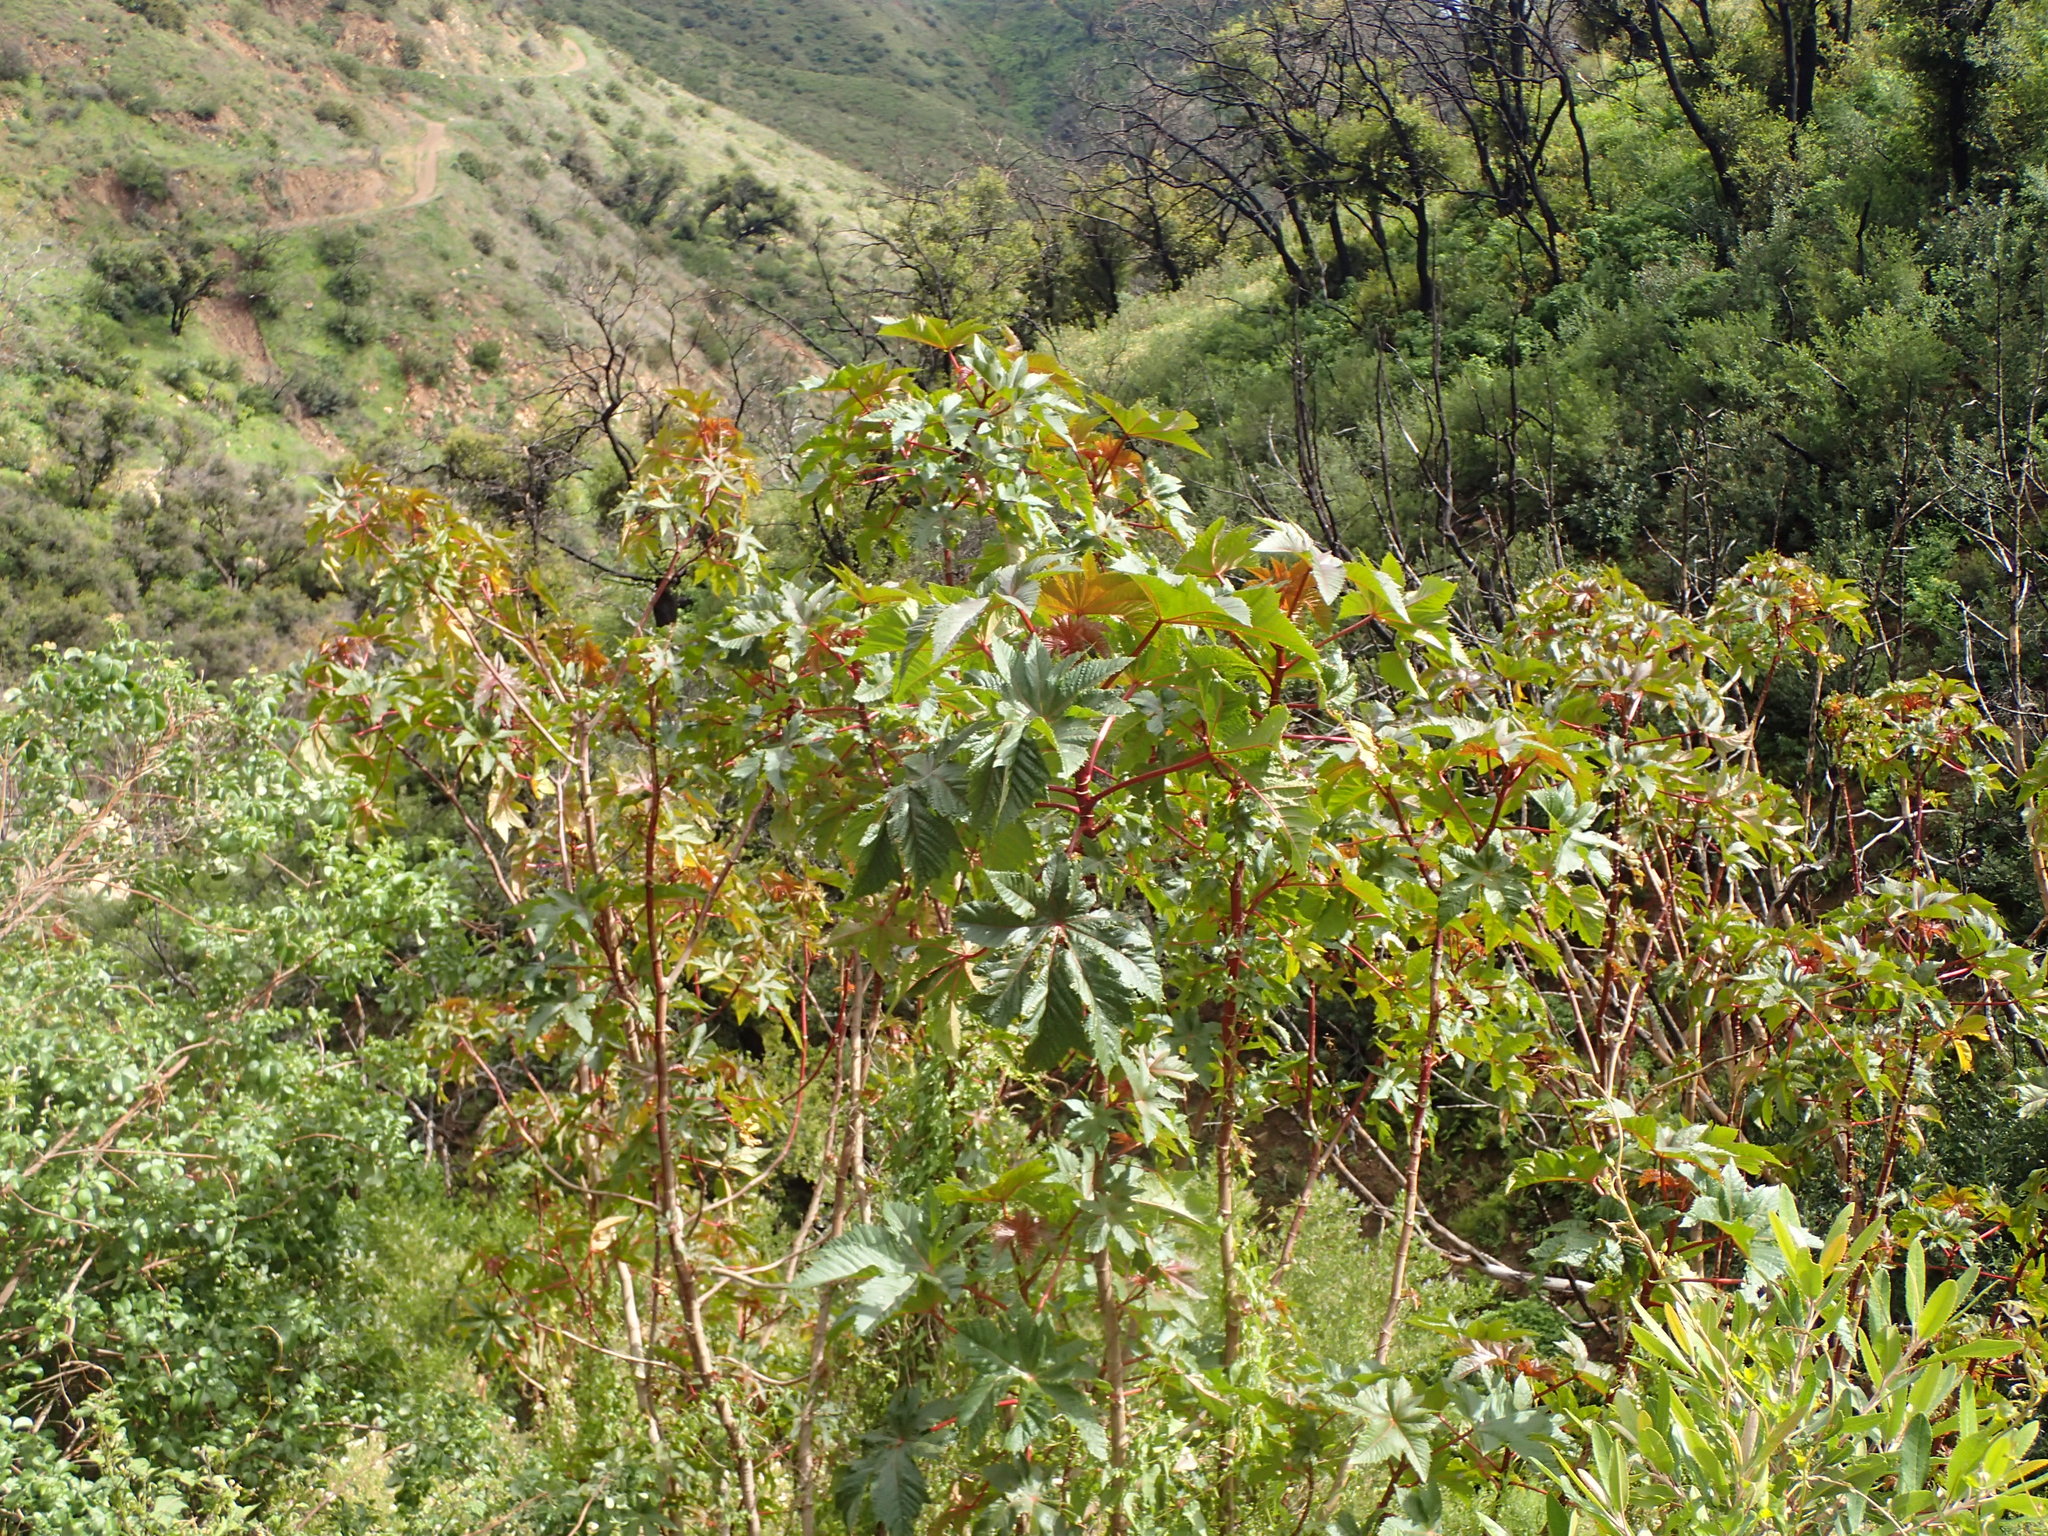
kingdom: Plantae
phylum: Tracheophyta
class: Magnoliopsida
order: Malpighiales
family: Euphorbiaceae
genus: Ricinus
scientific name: Ricinus communis
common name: Castor-oil-plant
